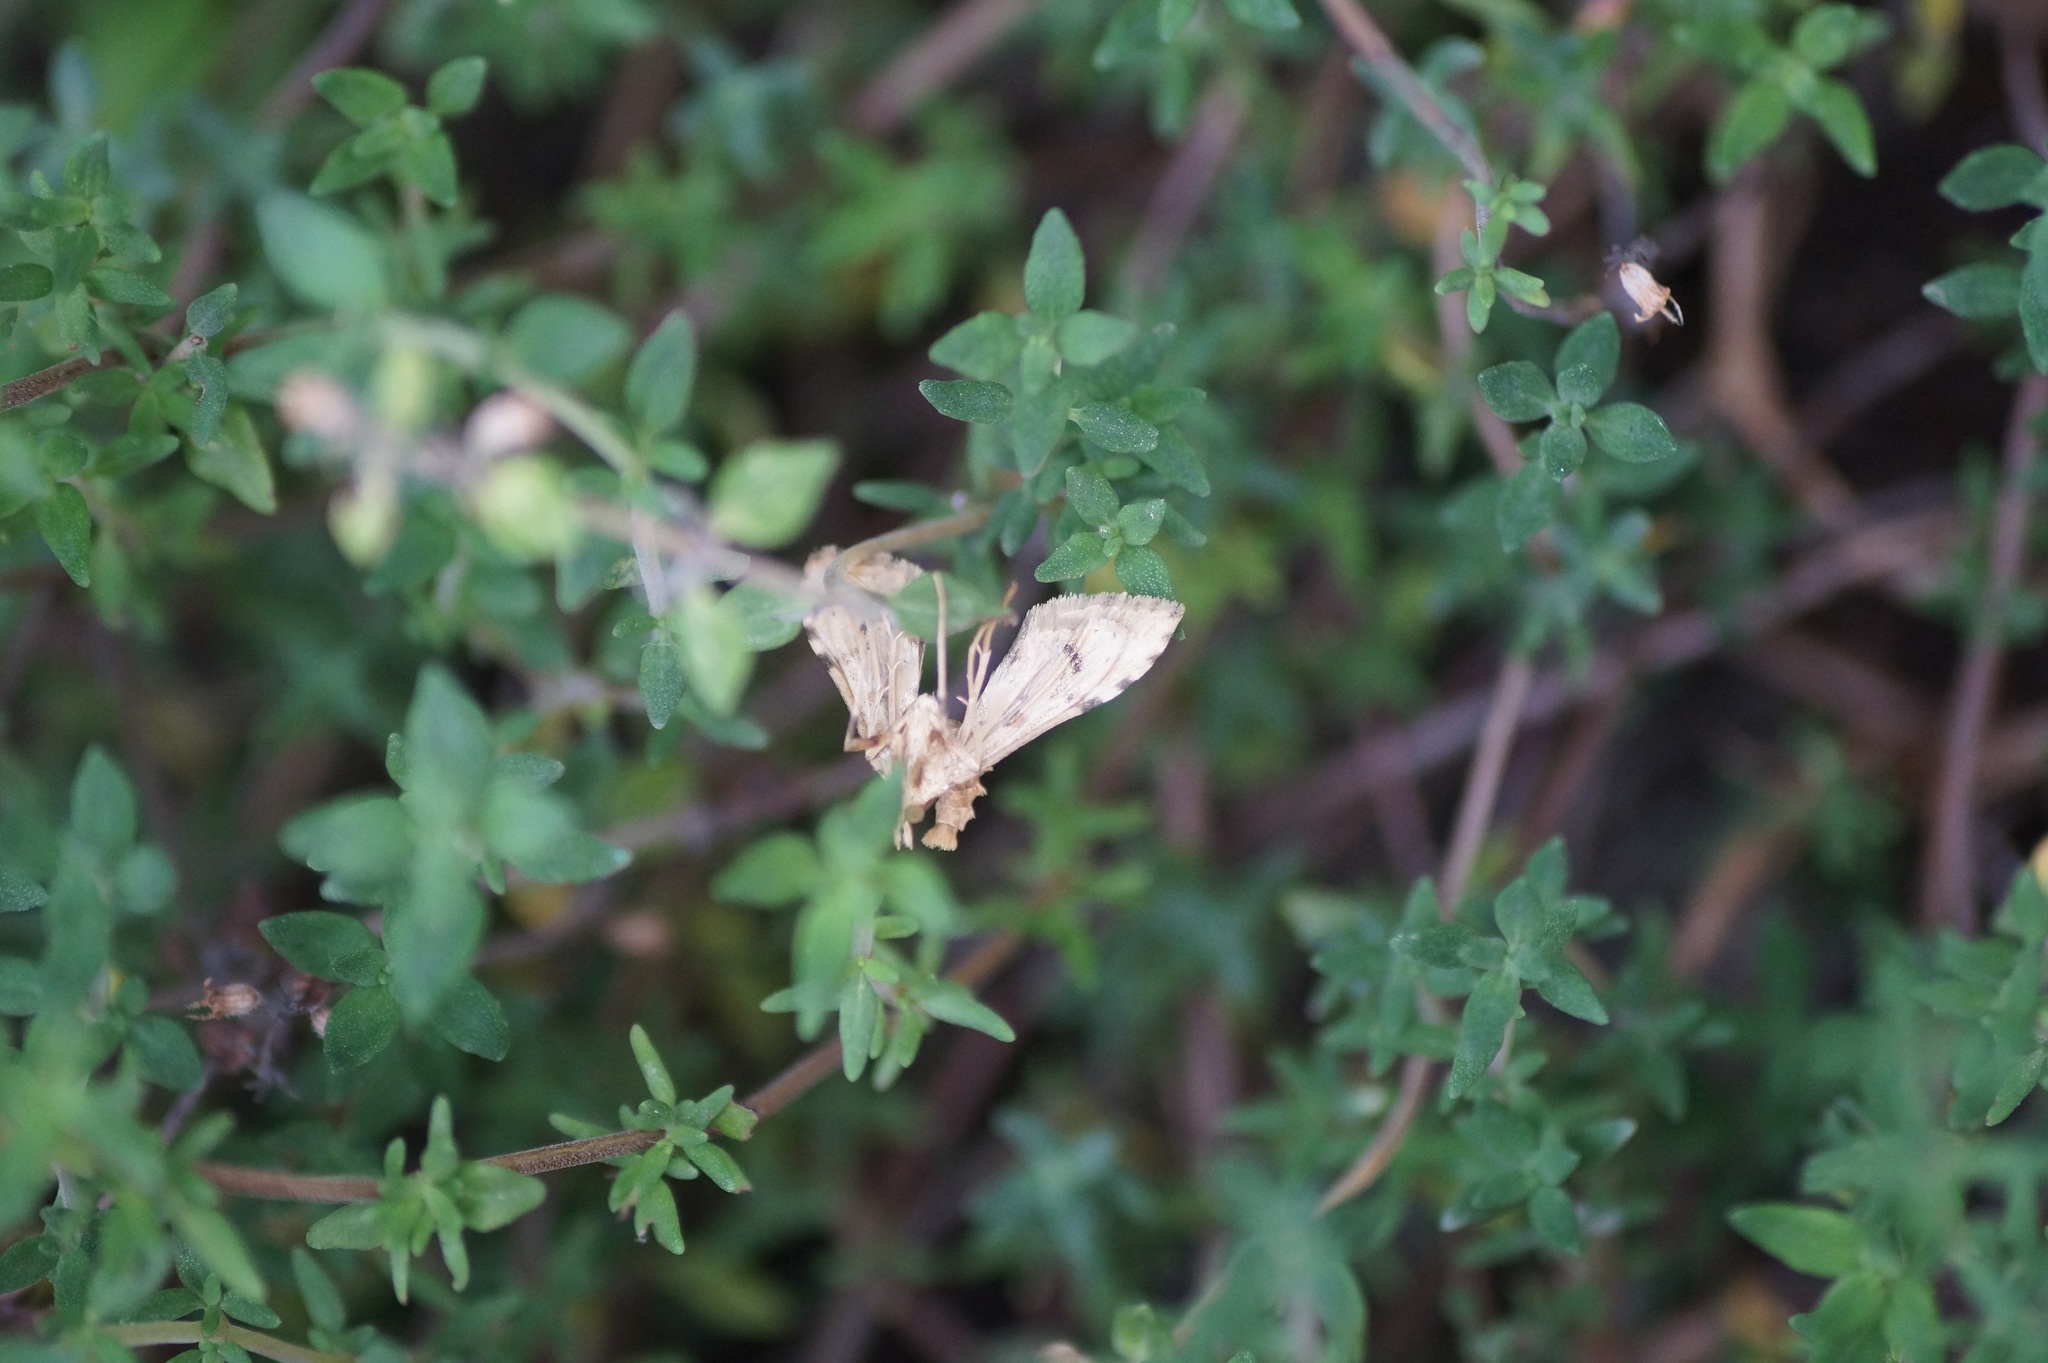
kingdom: Animalia
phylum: Arthropoda
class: Insecta
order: Lepidoptera
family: Crambidae
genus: Sceliodes
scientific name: Sceliodes cordalis
